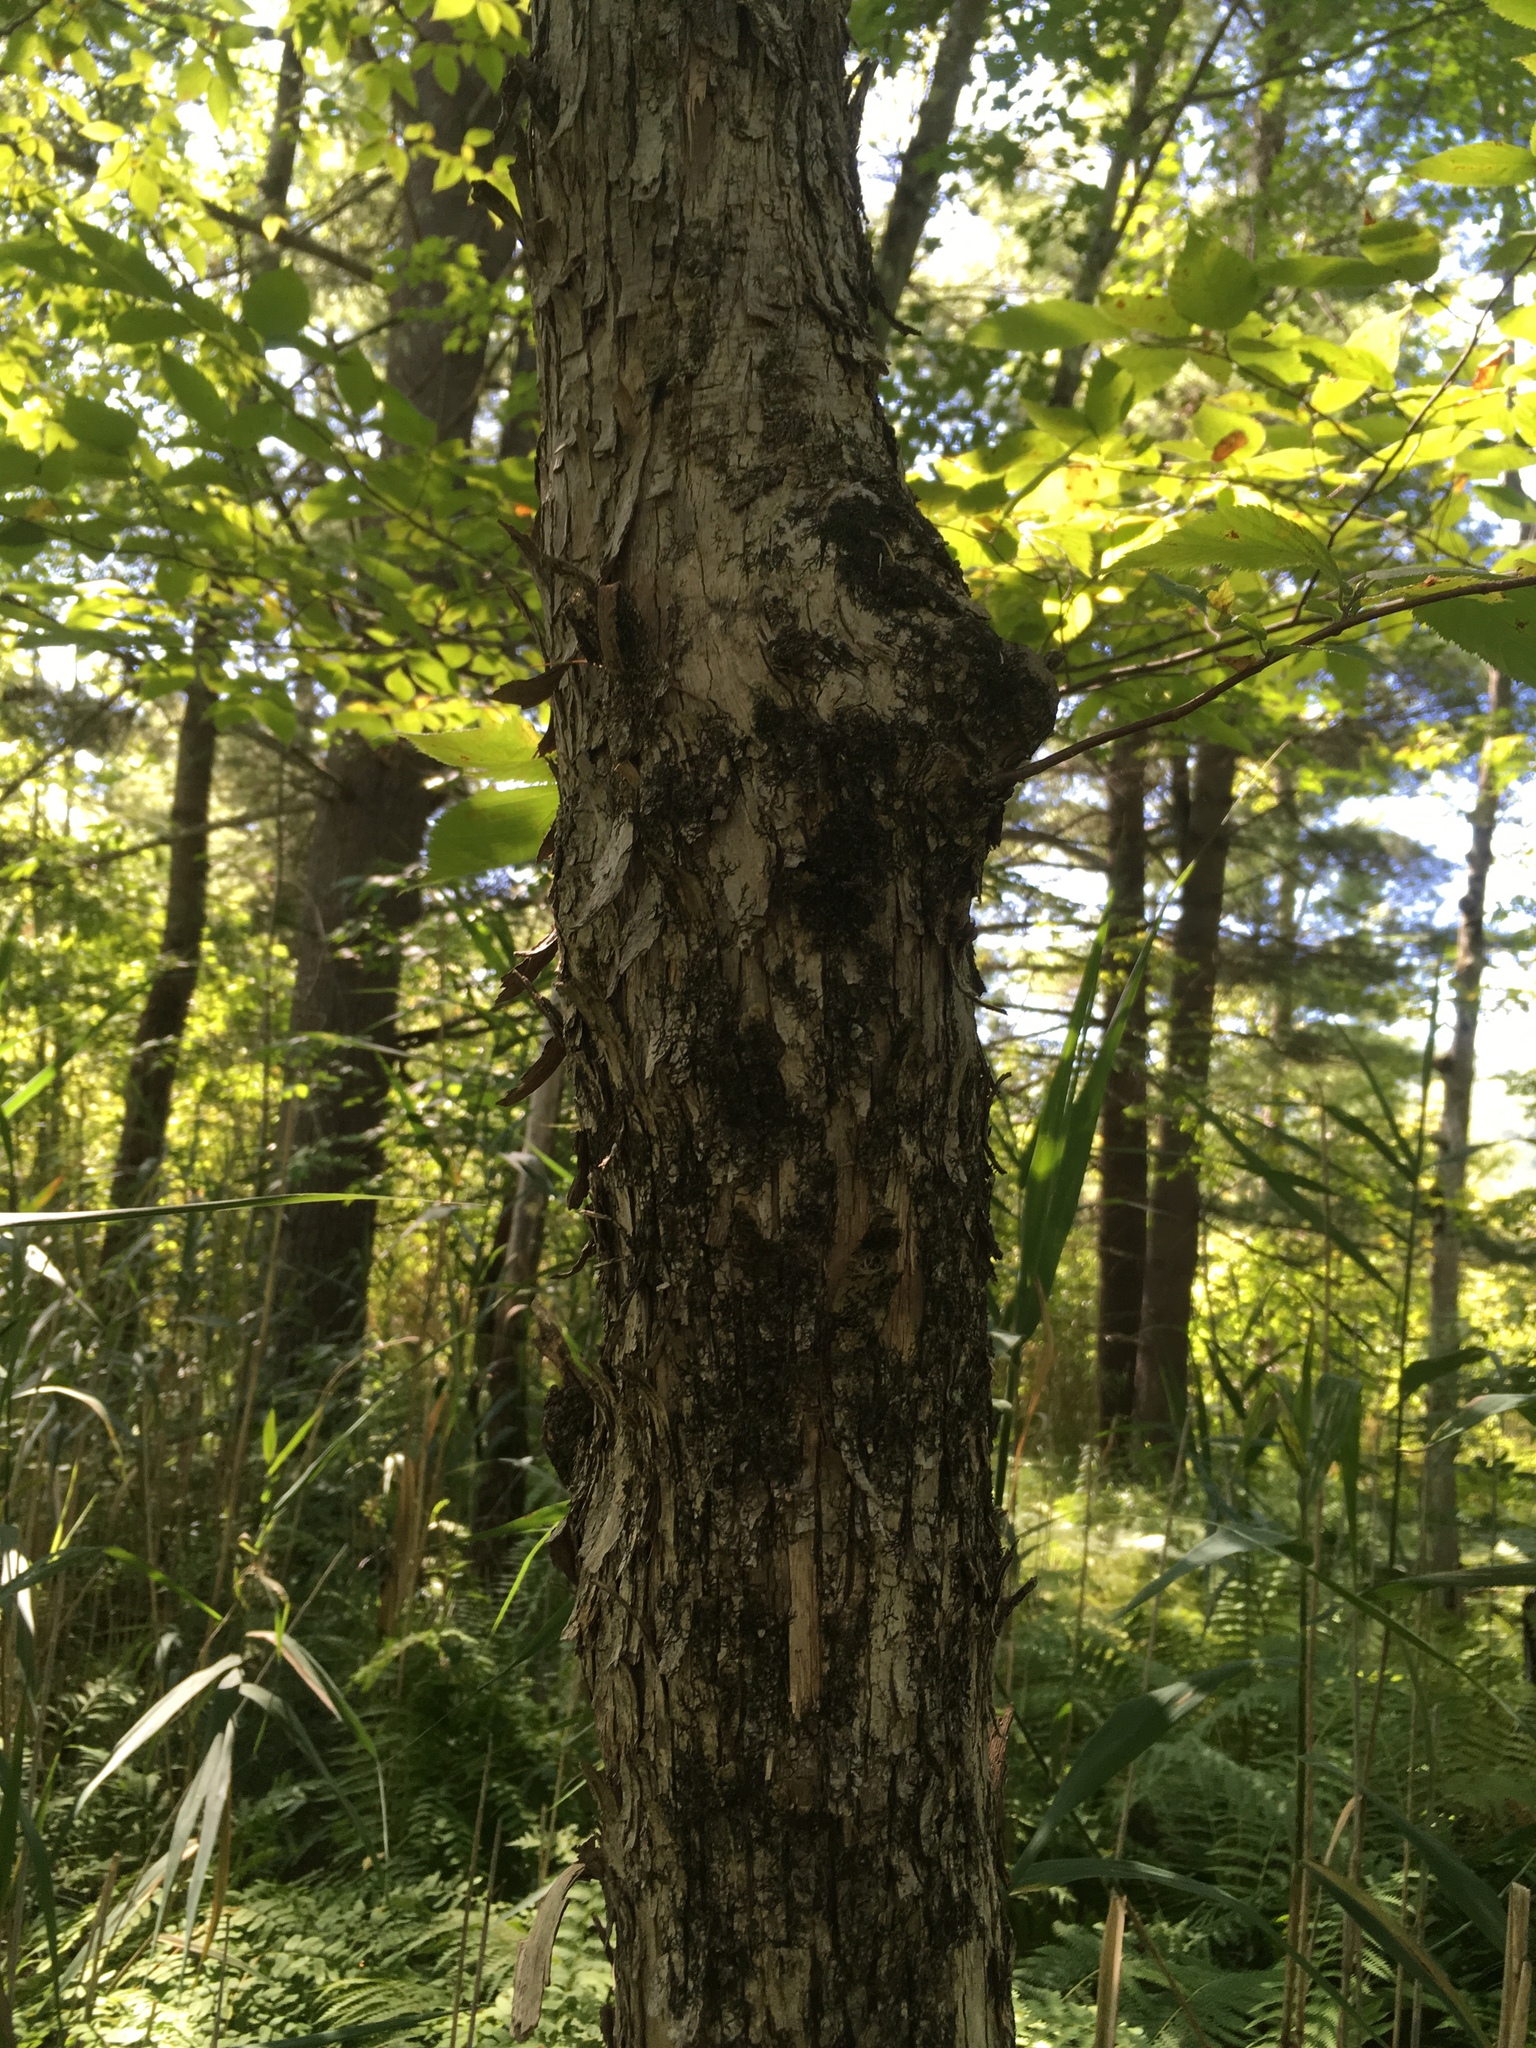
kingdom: Plantae
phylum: Tracheophyta
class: Magnoliopsida
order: Fagales
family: Betulaceae
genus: Ostrya
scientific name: Ostrya virginiana
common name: Ironwood
